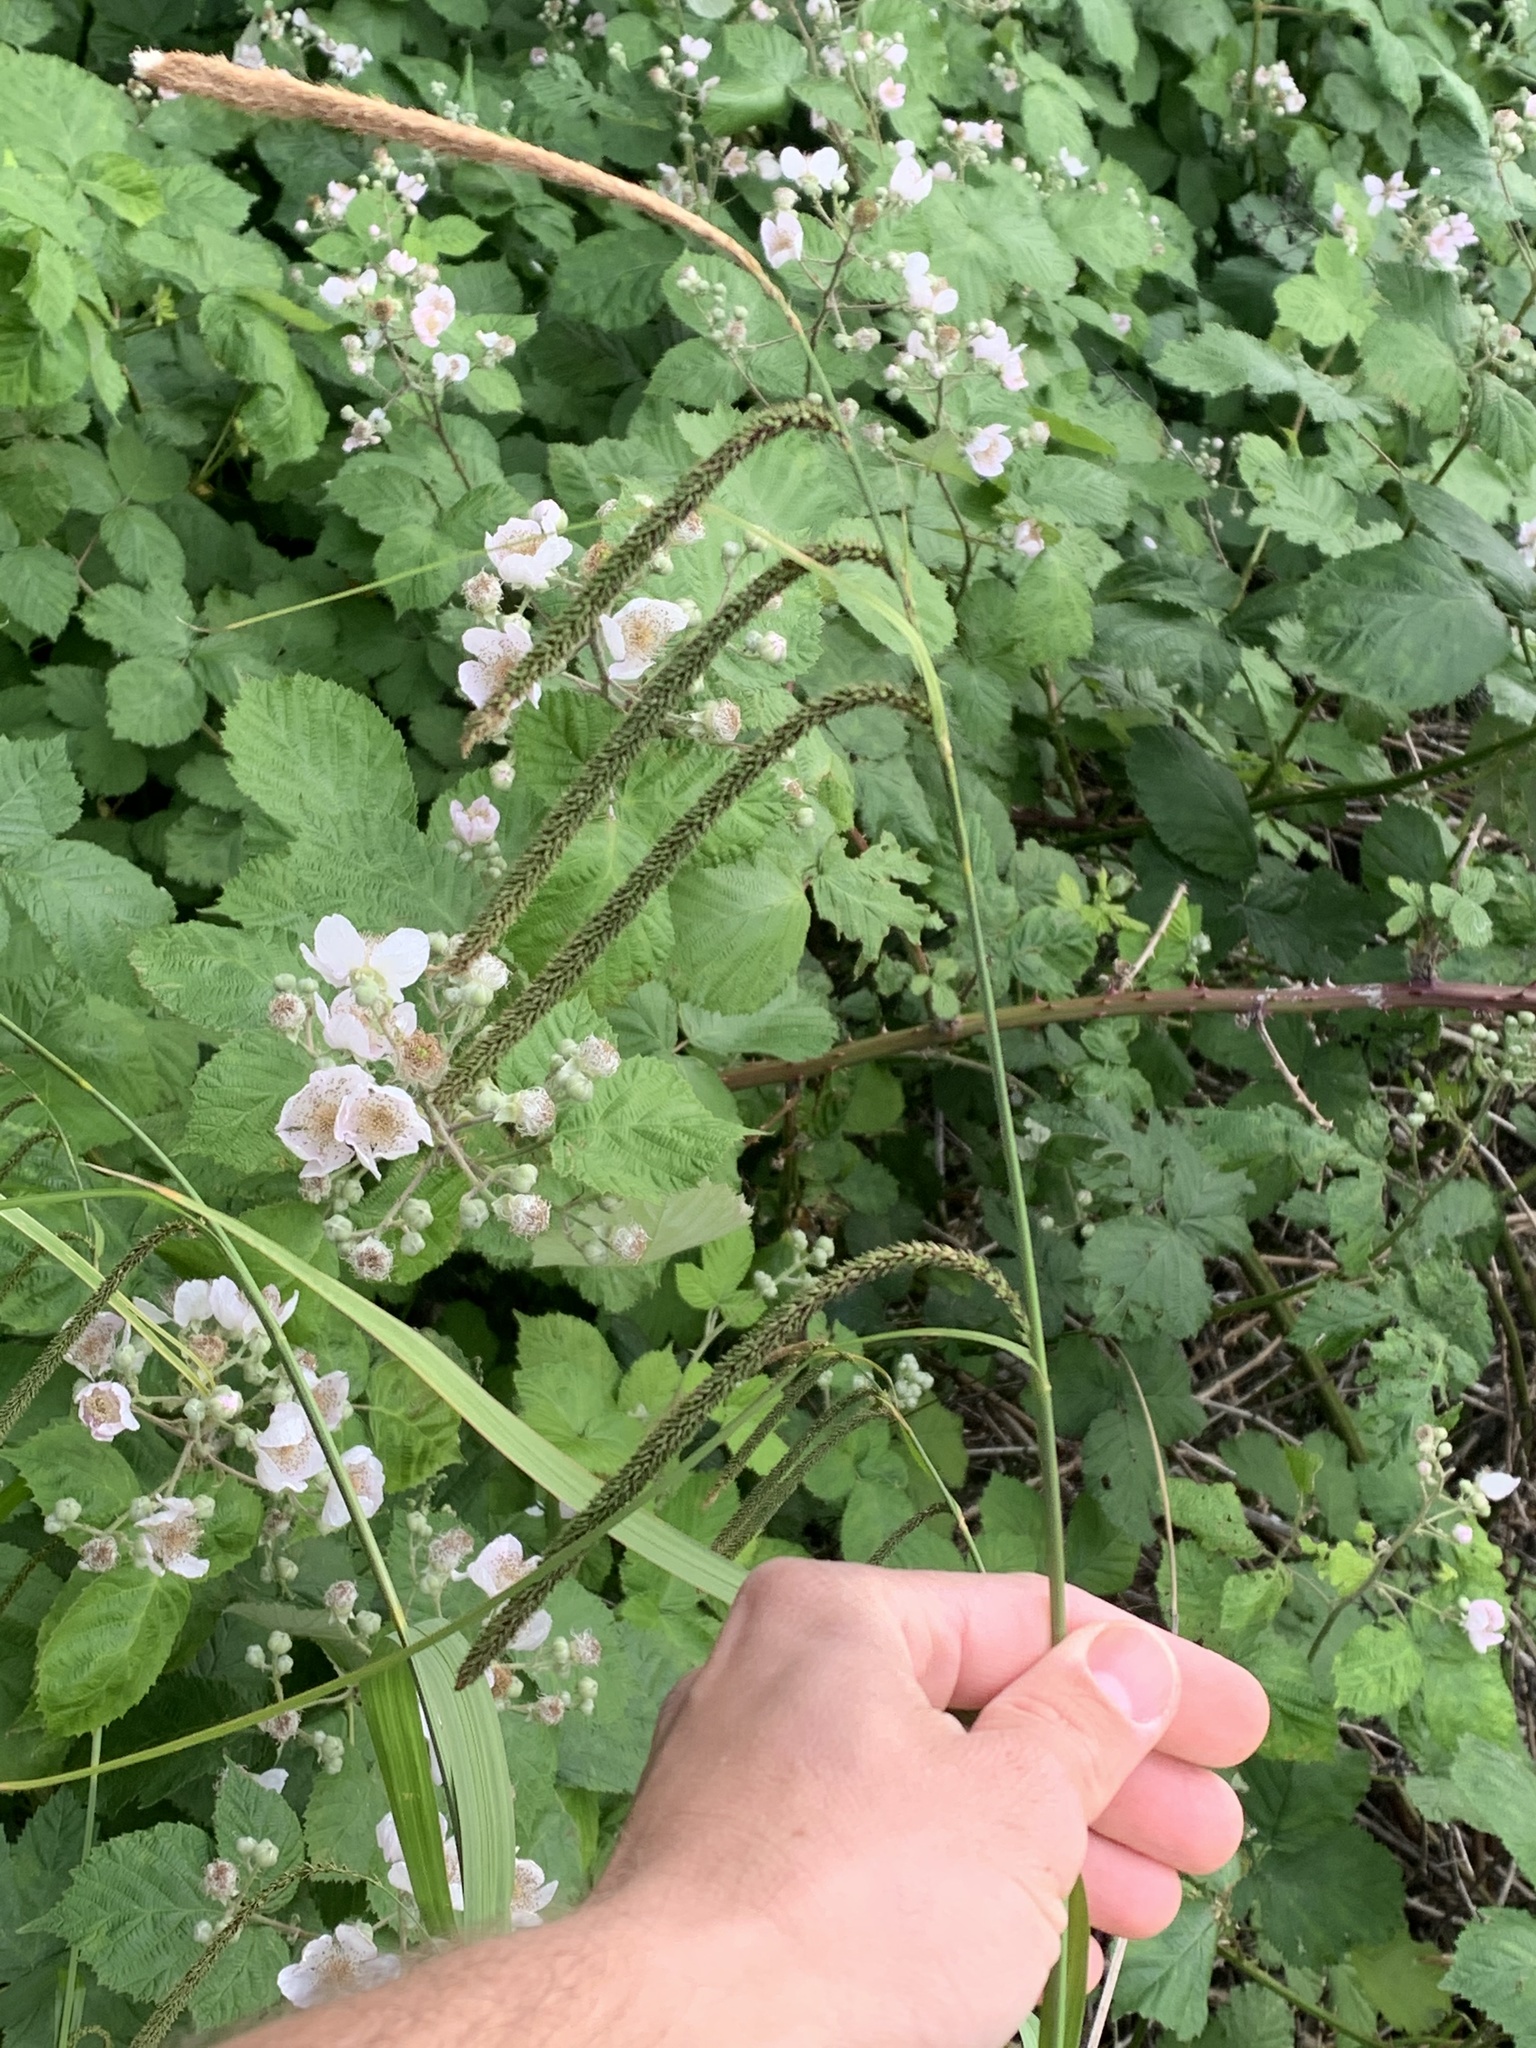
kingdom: Plantae
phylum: Tracheophyta
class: Liliopsida
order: Poales
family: Cyperaceae
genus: Carex
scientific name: Carex pendula
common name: Pendulous sedge
